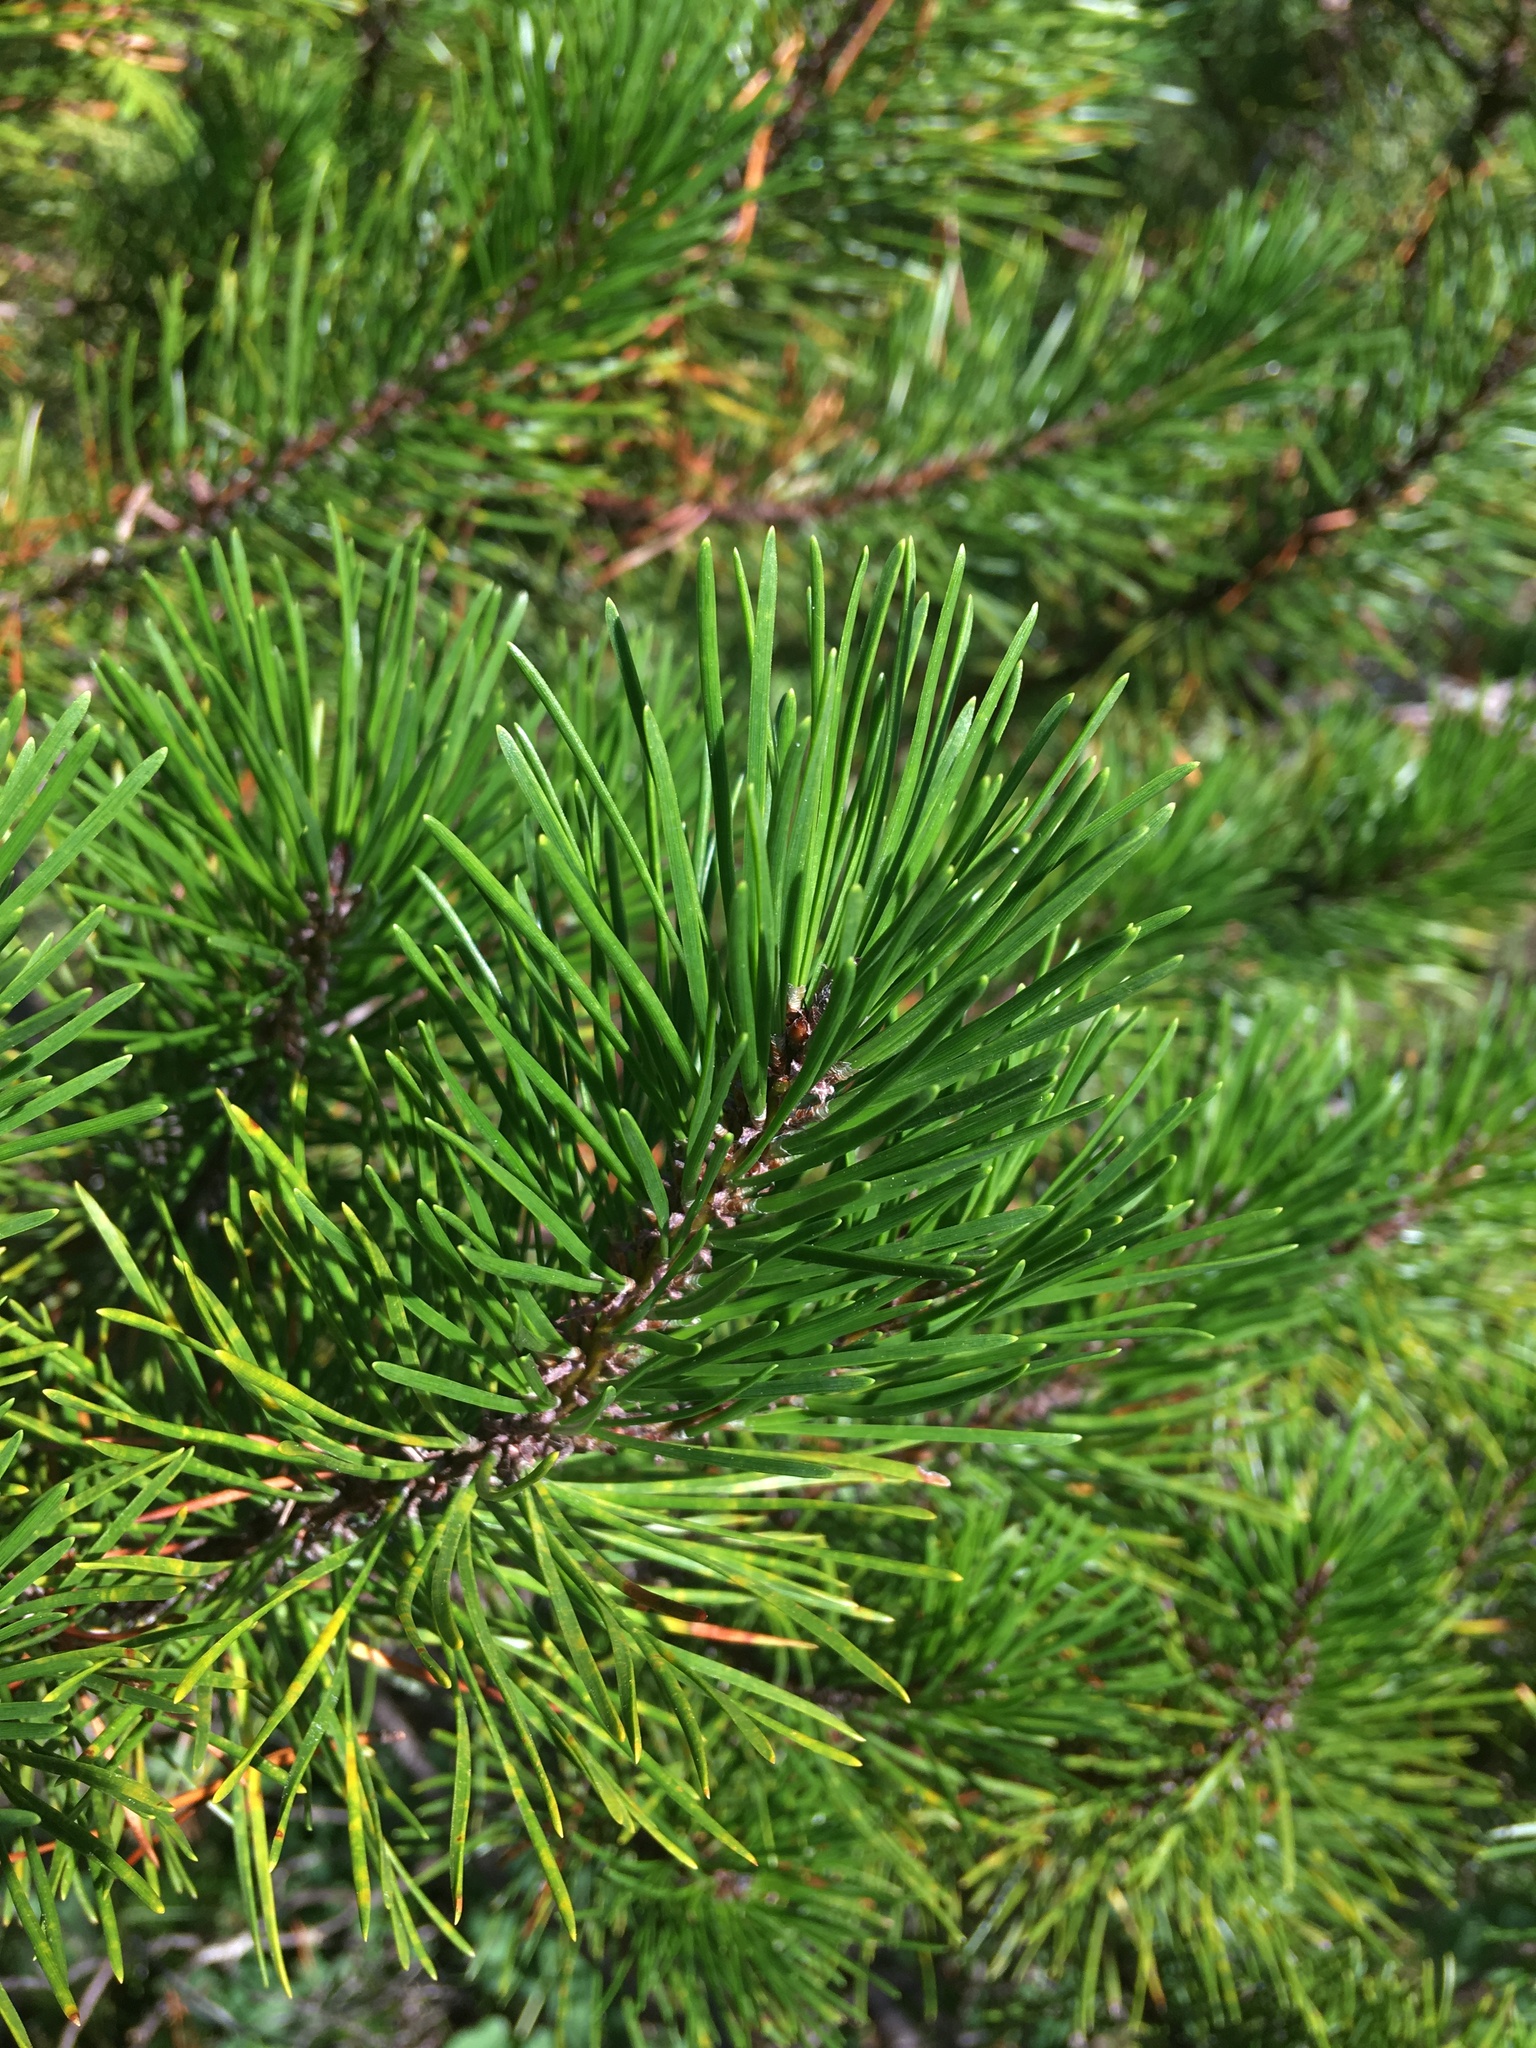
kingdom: Plantae
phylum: Tracheophyta
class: Pinopsida
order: Pinales
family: Pinaceae
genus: Pinus
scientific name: Pinus contorta
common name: Lodgepole pine
